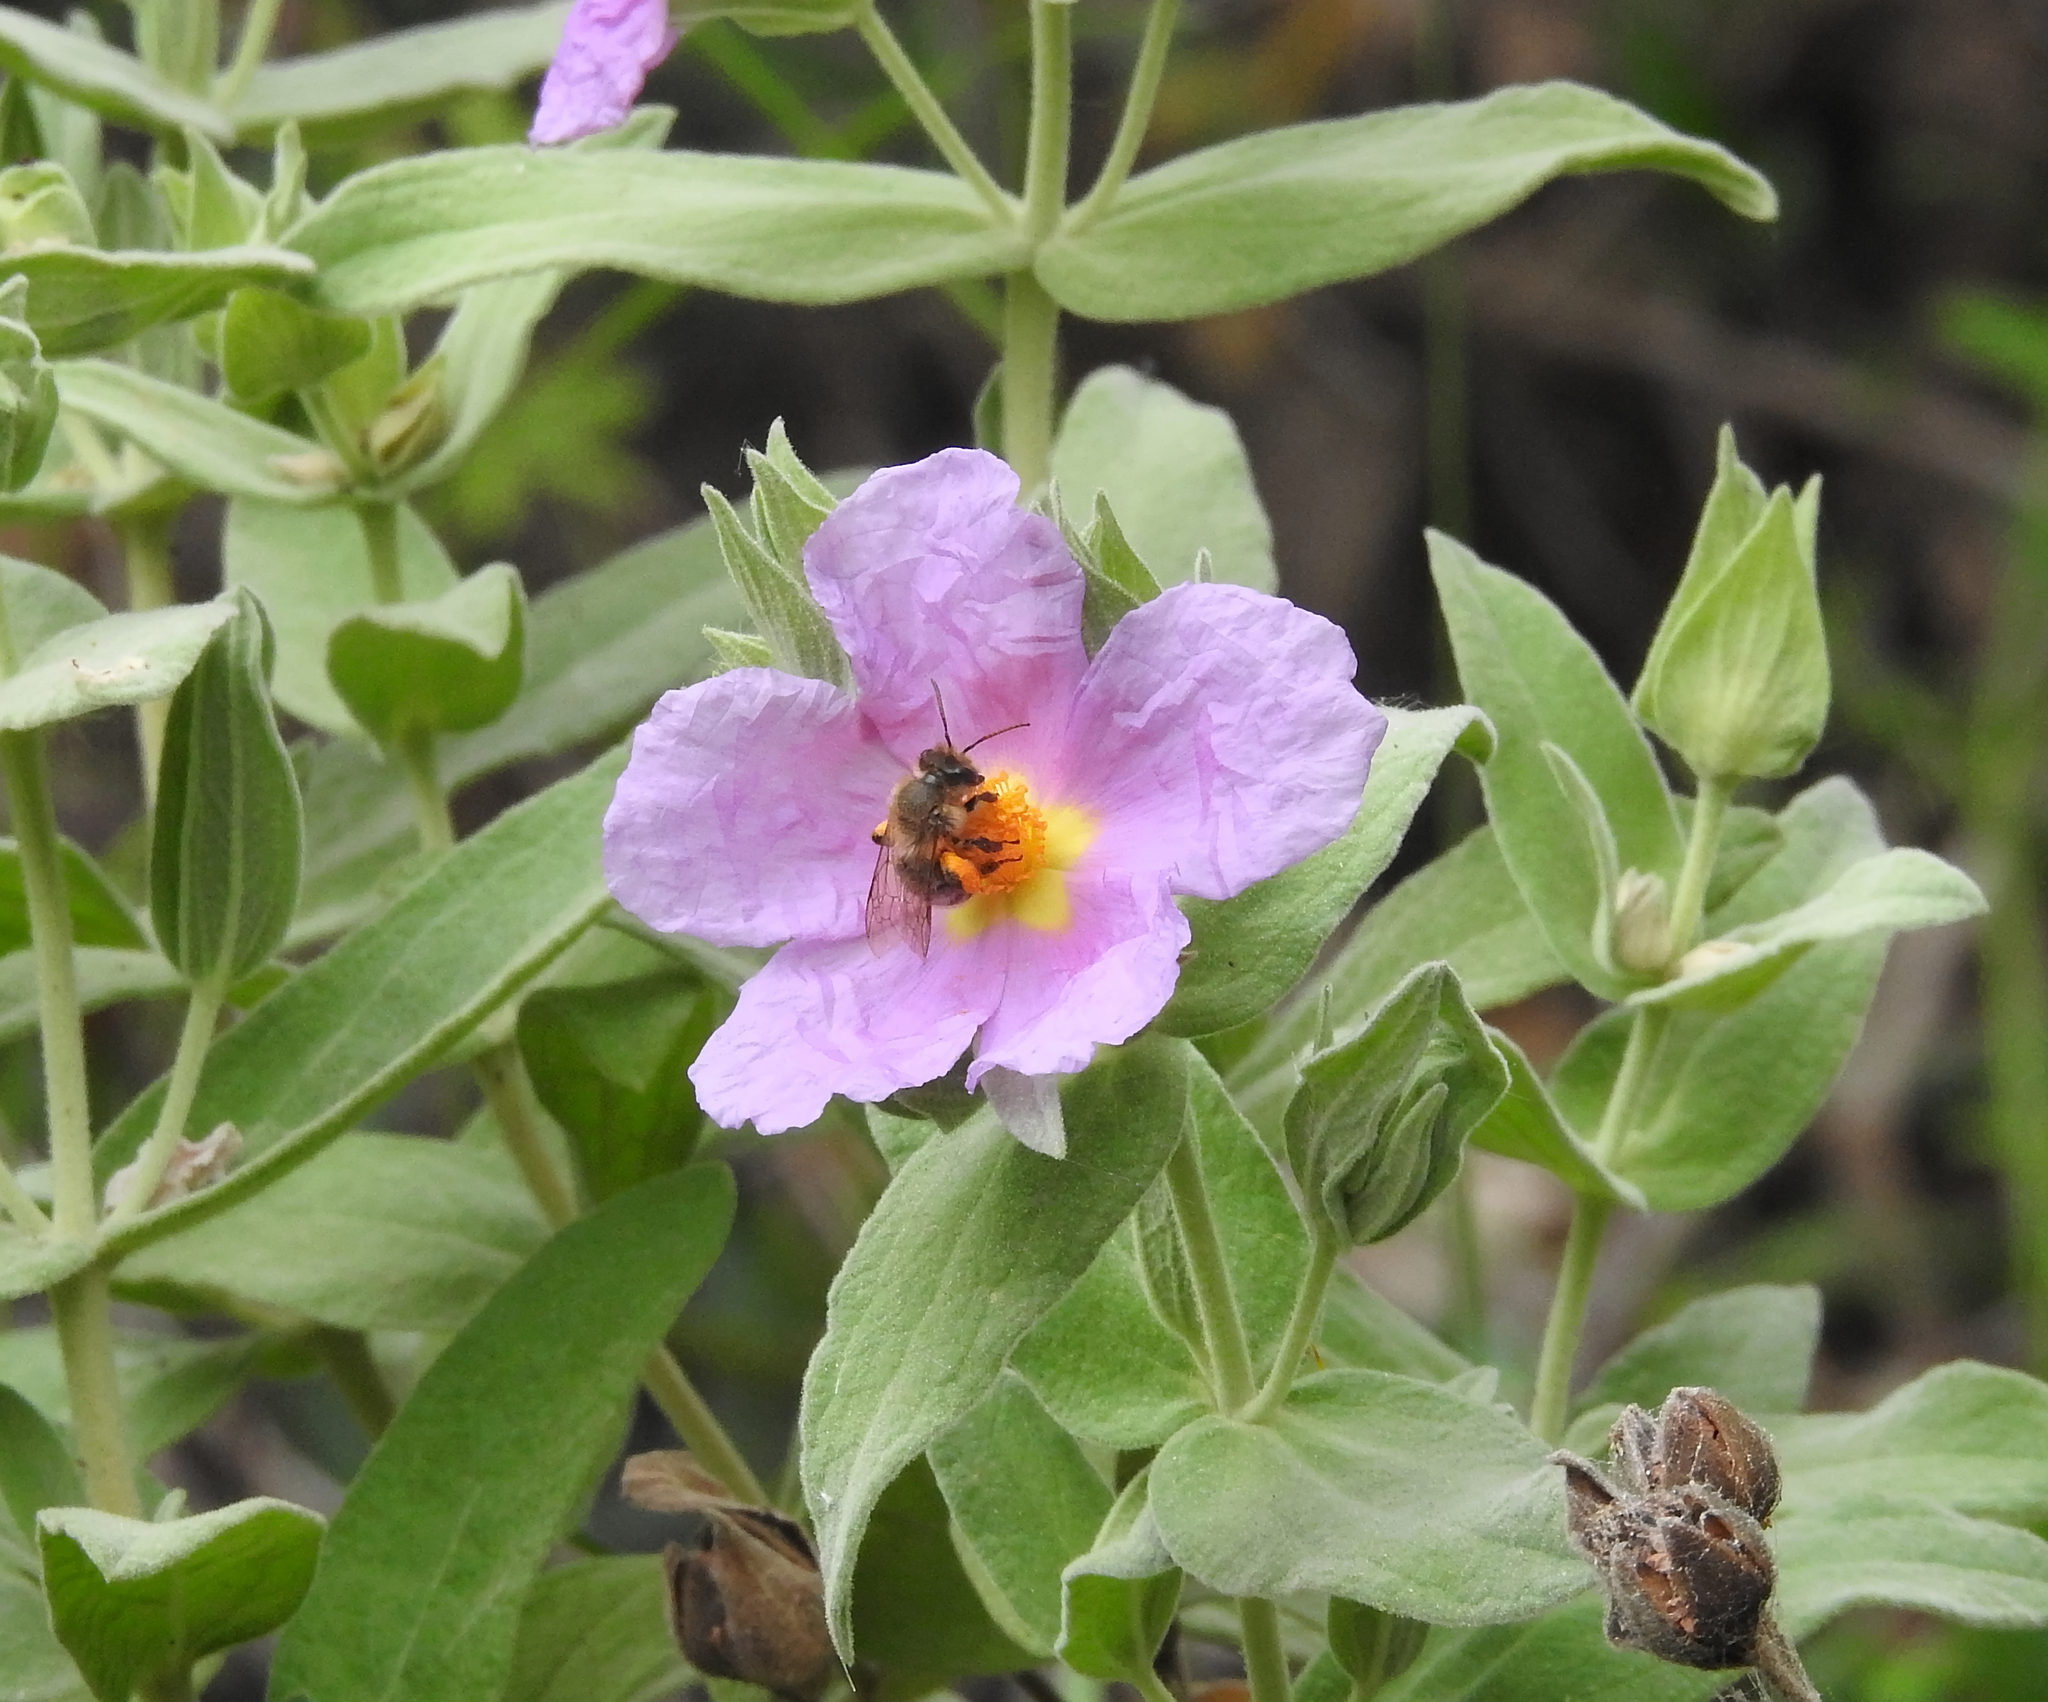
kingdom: Plantae
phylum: Tracheophyta
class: Magnoliopsida
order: Malvales
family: Cistaceae
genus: Cistus
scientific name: Cistus albidus
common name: White-leaf rock-rose
